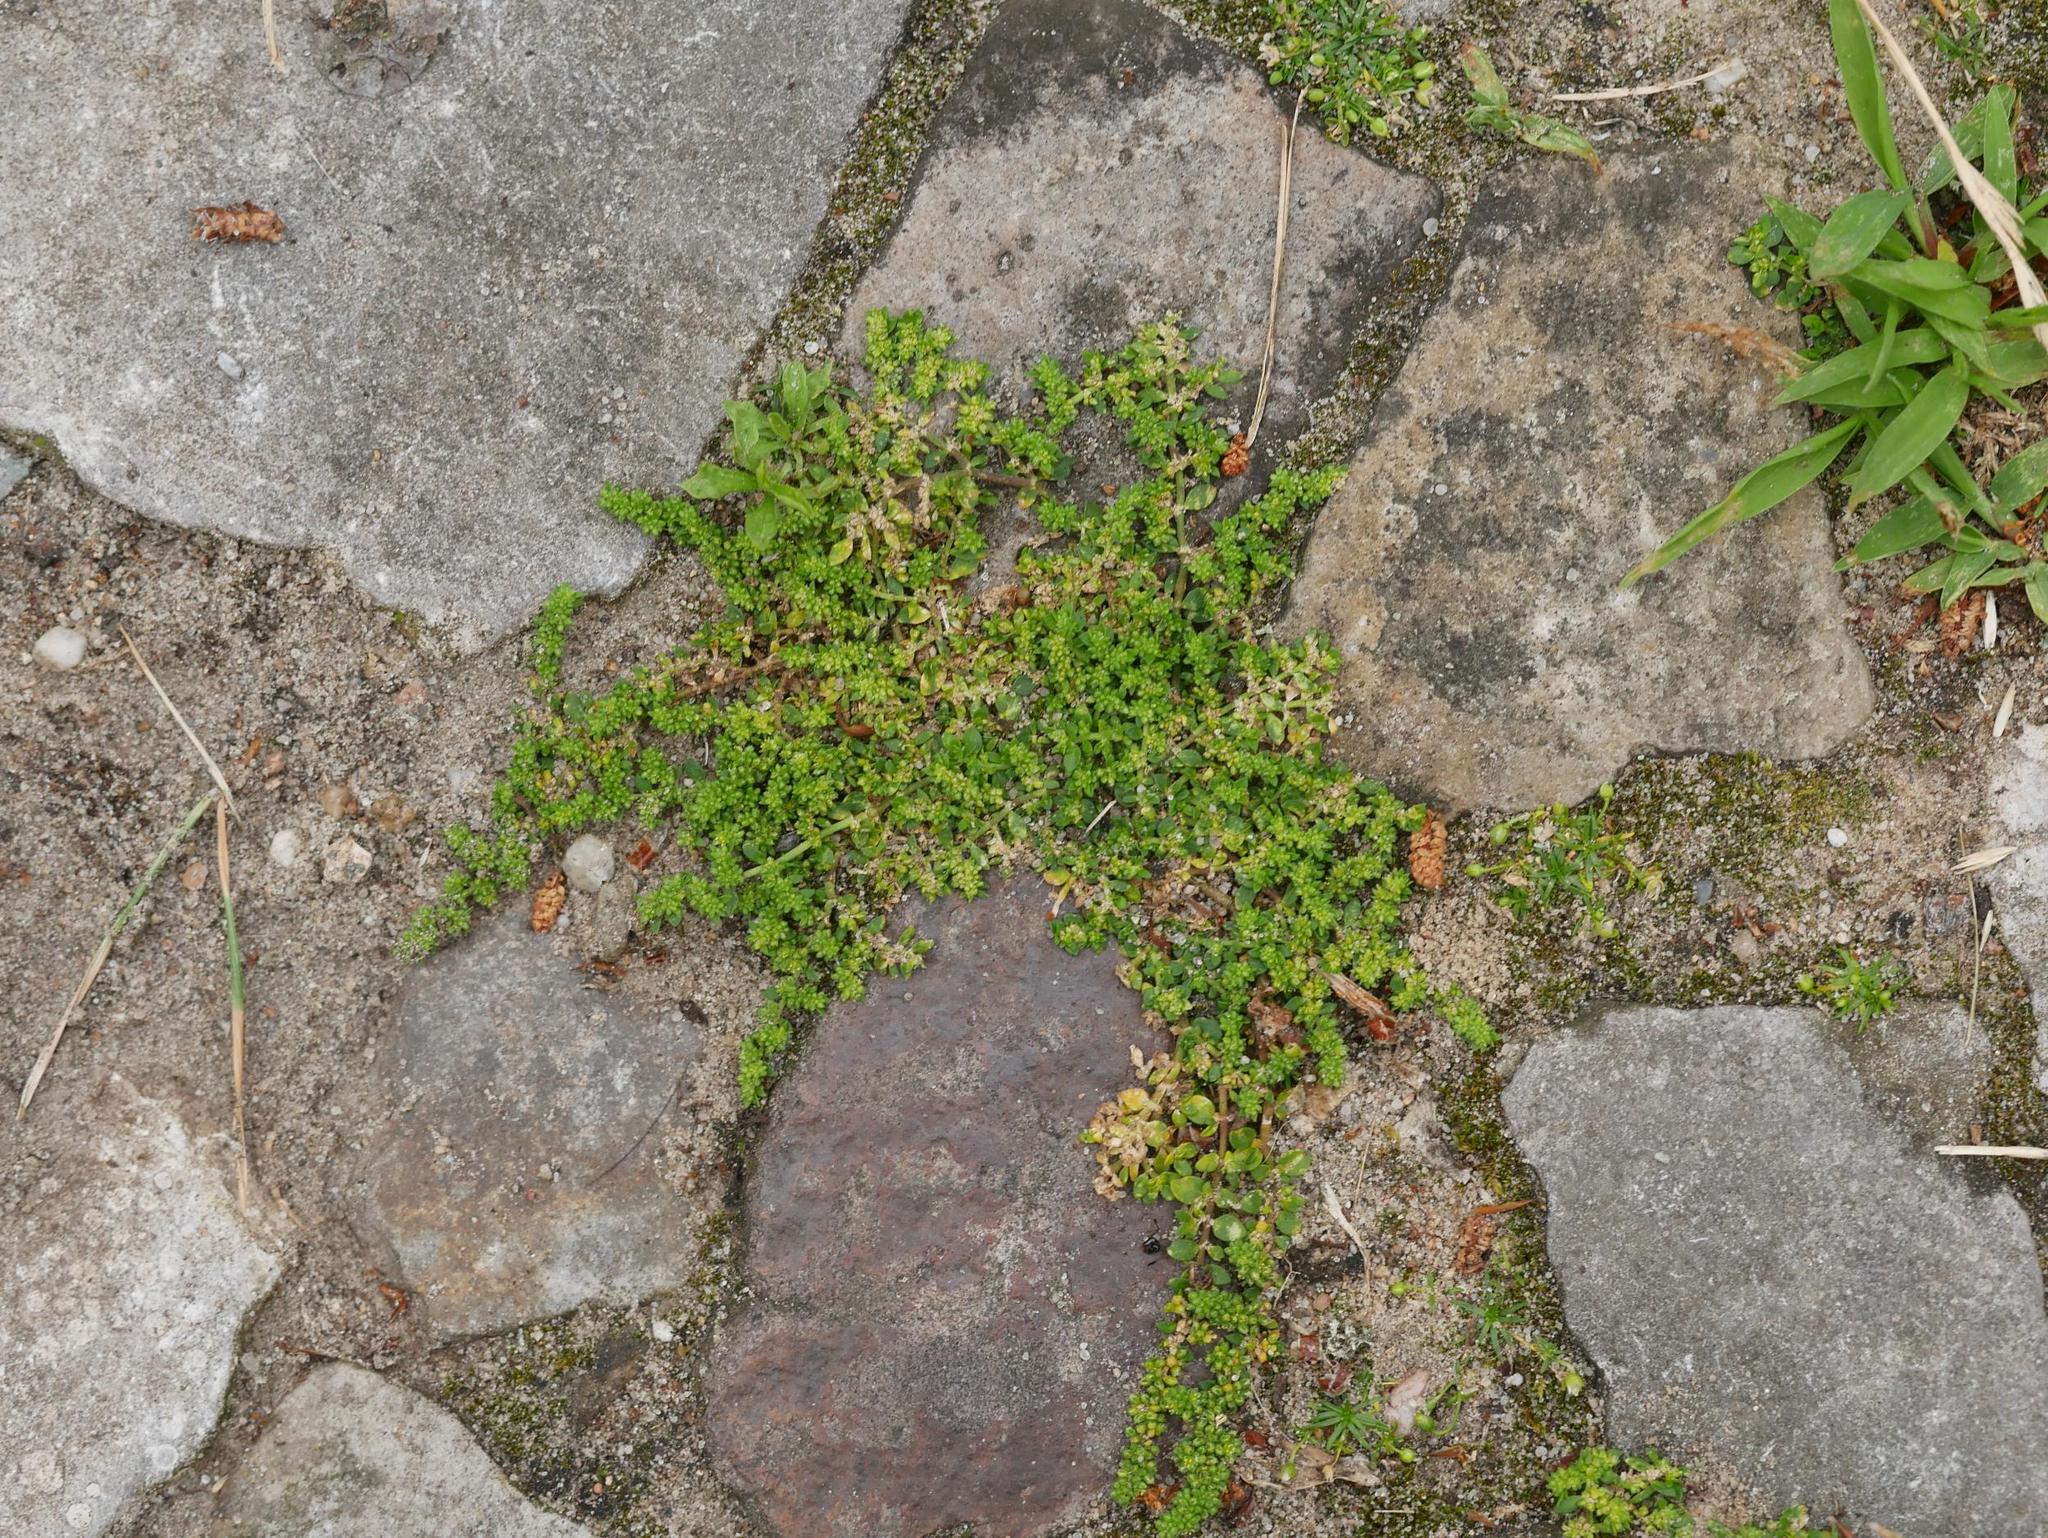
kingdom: Plantae
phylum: Tracheophyta
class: Magnoliopsida
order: Caryophyllales
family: Caryophyllaceae
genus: Herniaria
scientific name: Herniaria glabra
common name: Smooth rupturewort
